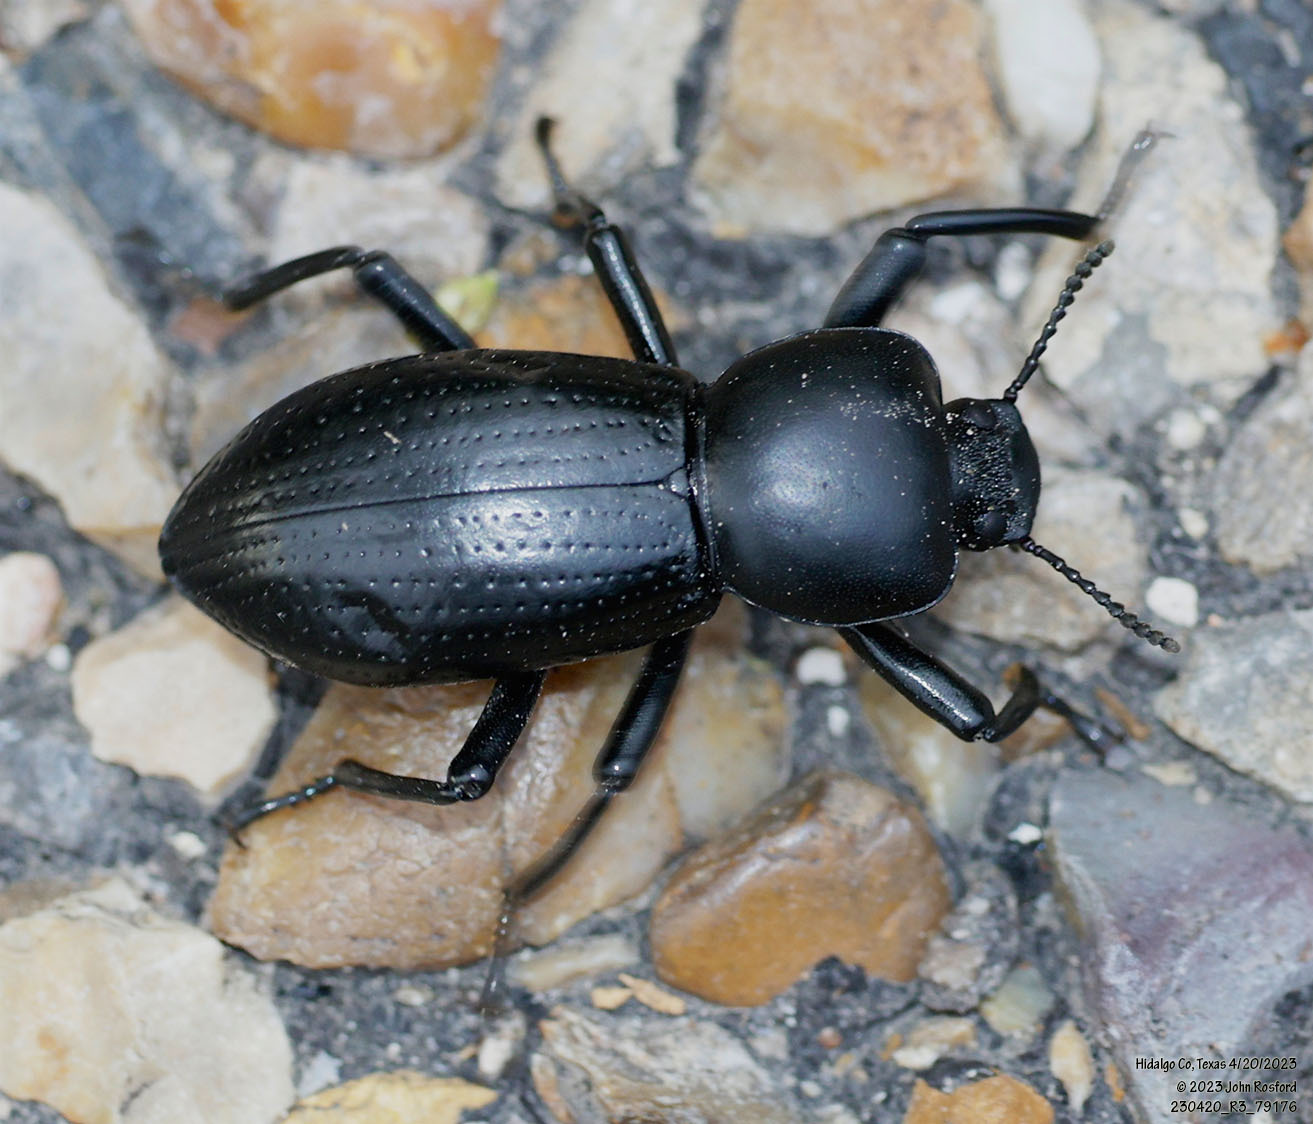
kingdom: Animalia
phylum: Arthropoda
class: Insecta
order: Coleoptera
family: Tenebrionidae
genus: Oenopion
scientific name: Oenopion zopheroides
